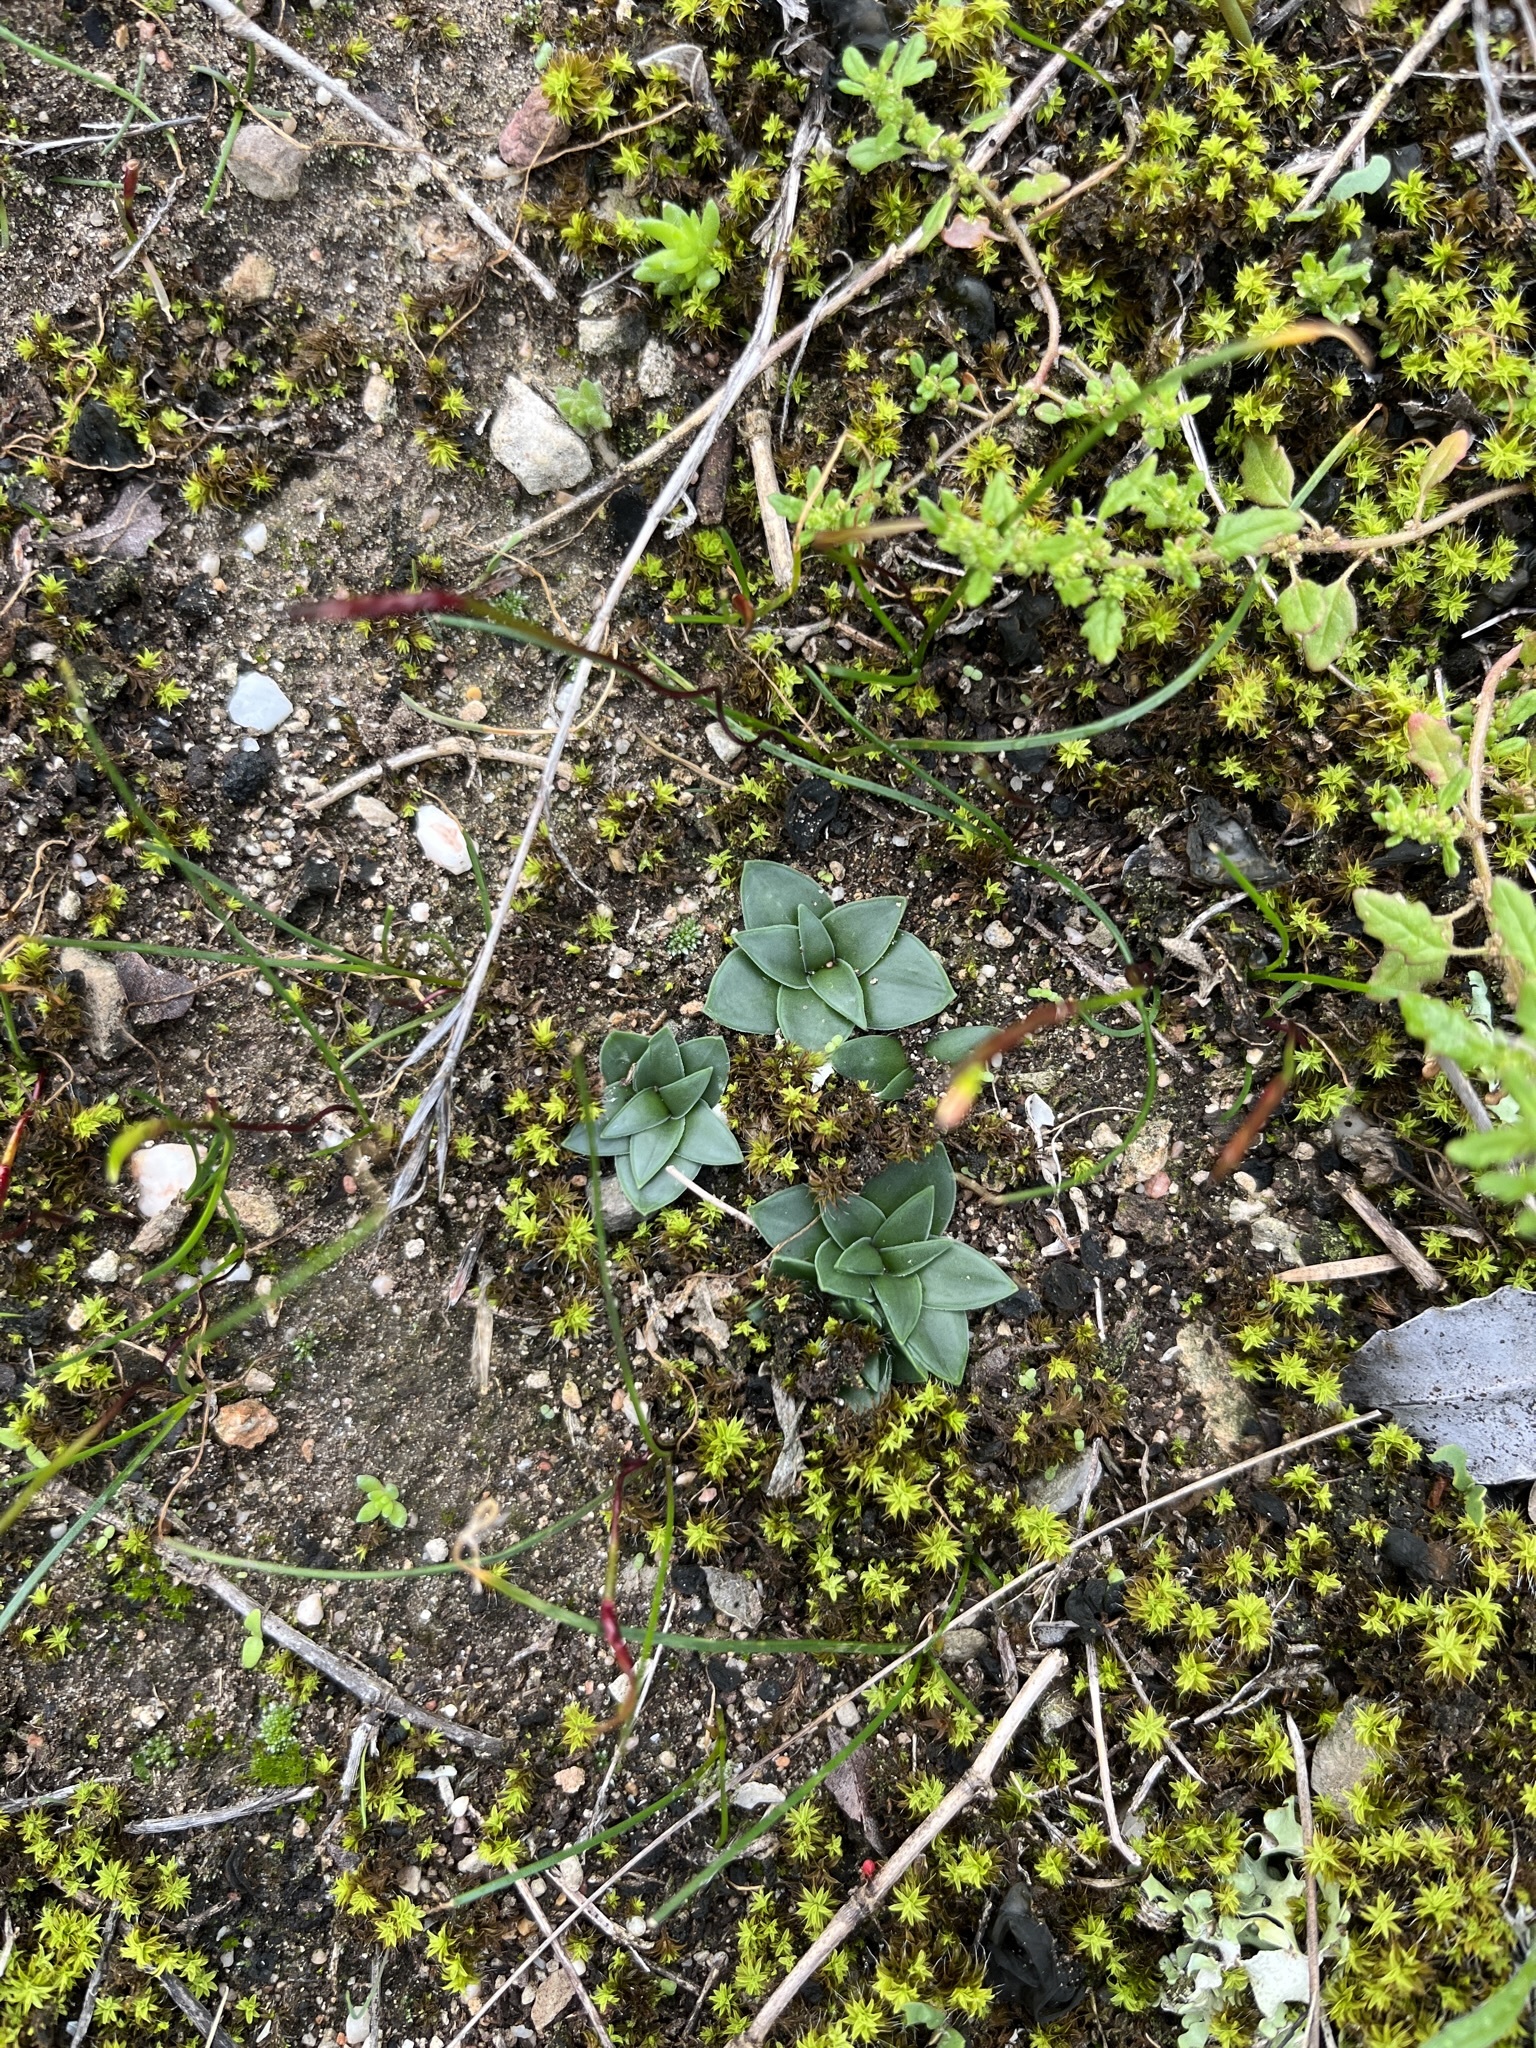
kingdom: Plantae
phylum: Tracheophyta
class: Liliopsida
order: Asparagales
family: Asparagaceae
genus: Drimia
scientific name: Drimia ciliata
